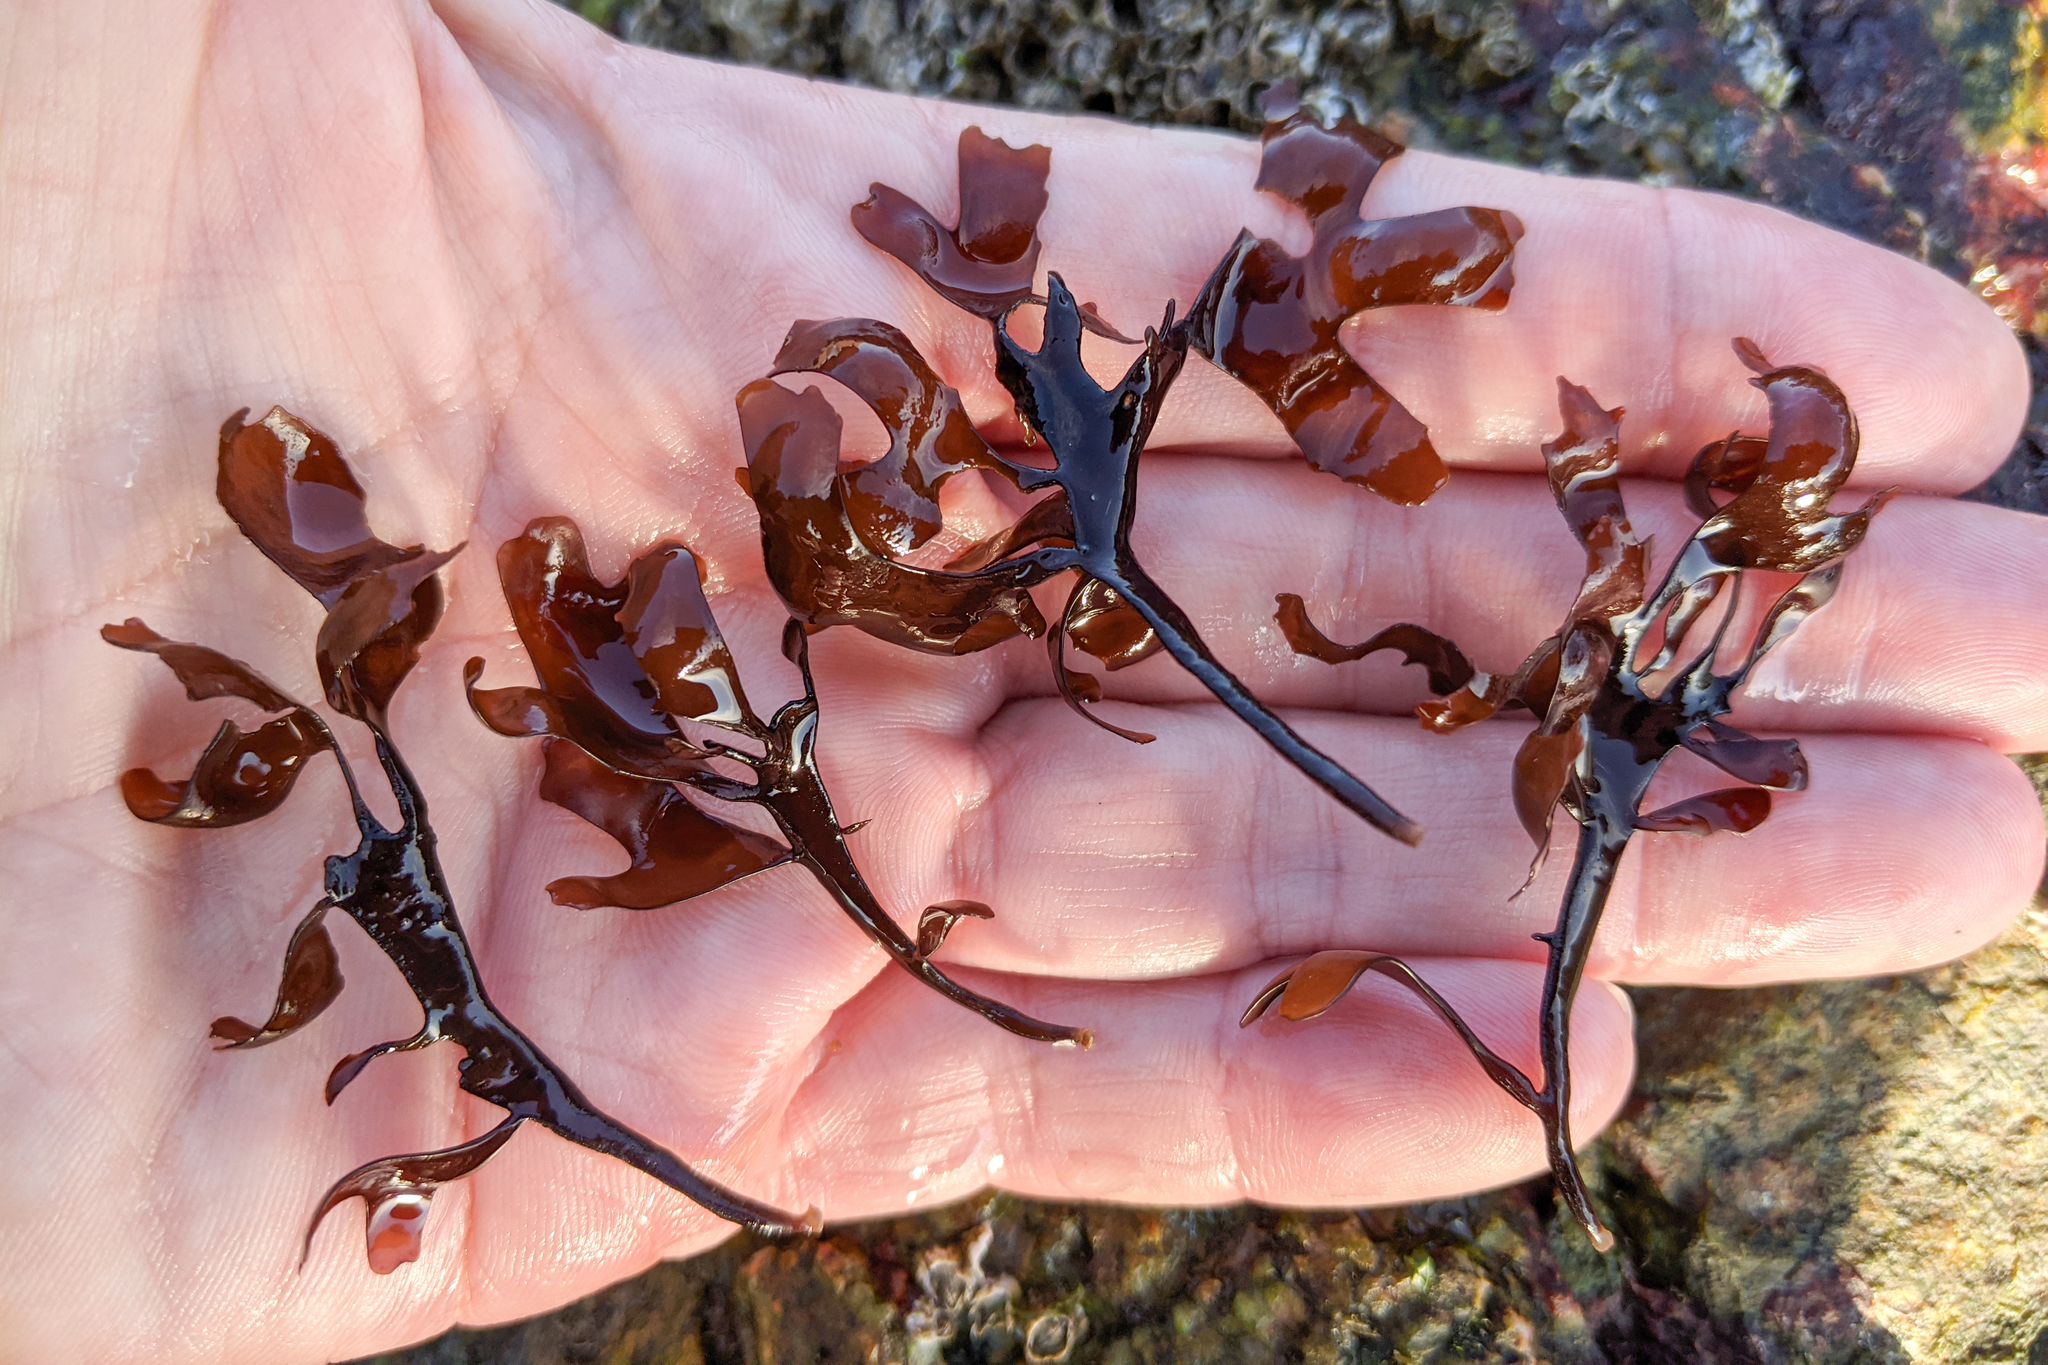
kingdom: Plantae
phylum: Rhodophyta
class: Florideophyceae
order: Gigartinales
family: Gigartinaceae
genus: Chondrus
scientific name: Chondrus crispus
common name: Carrageen
